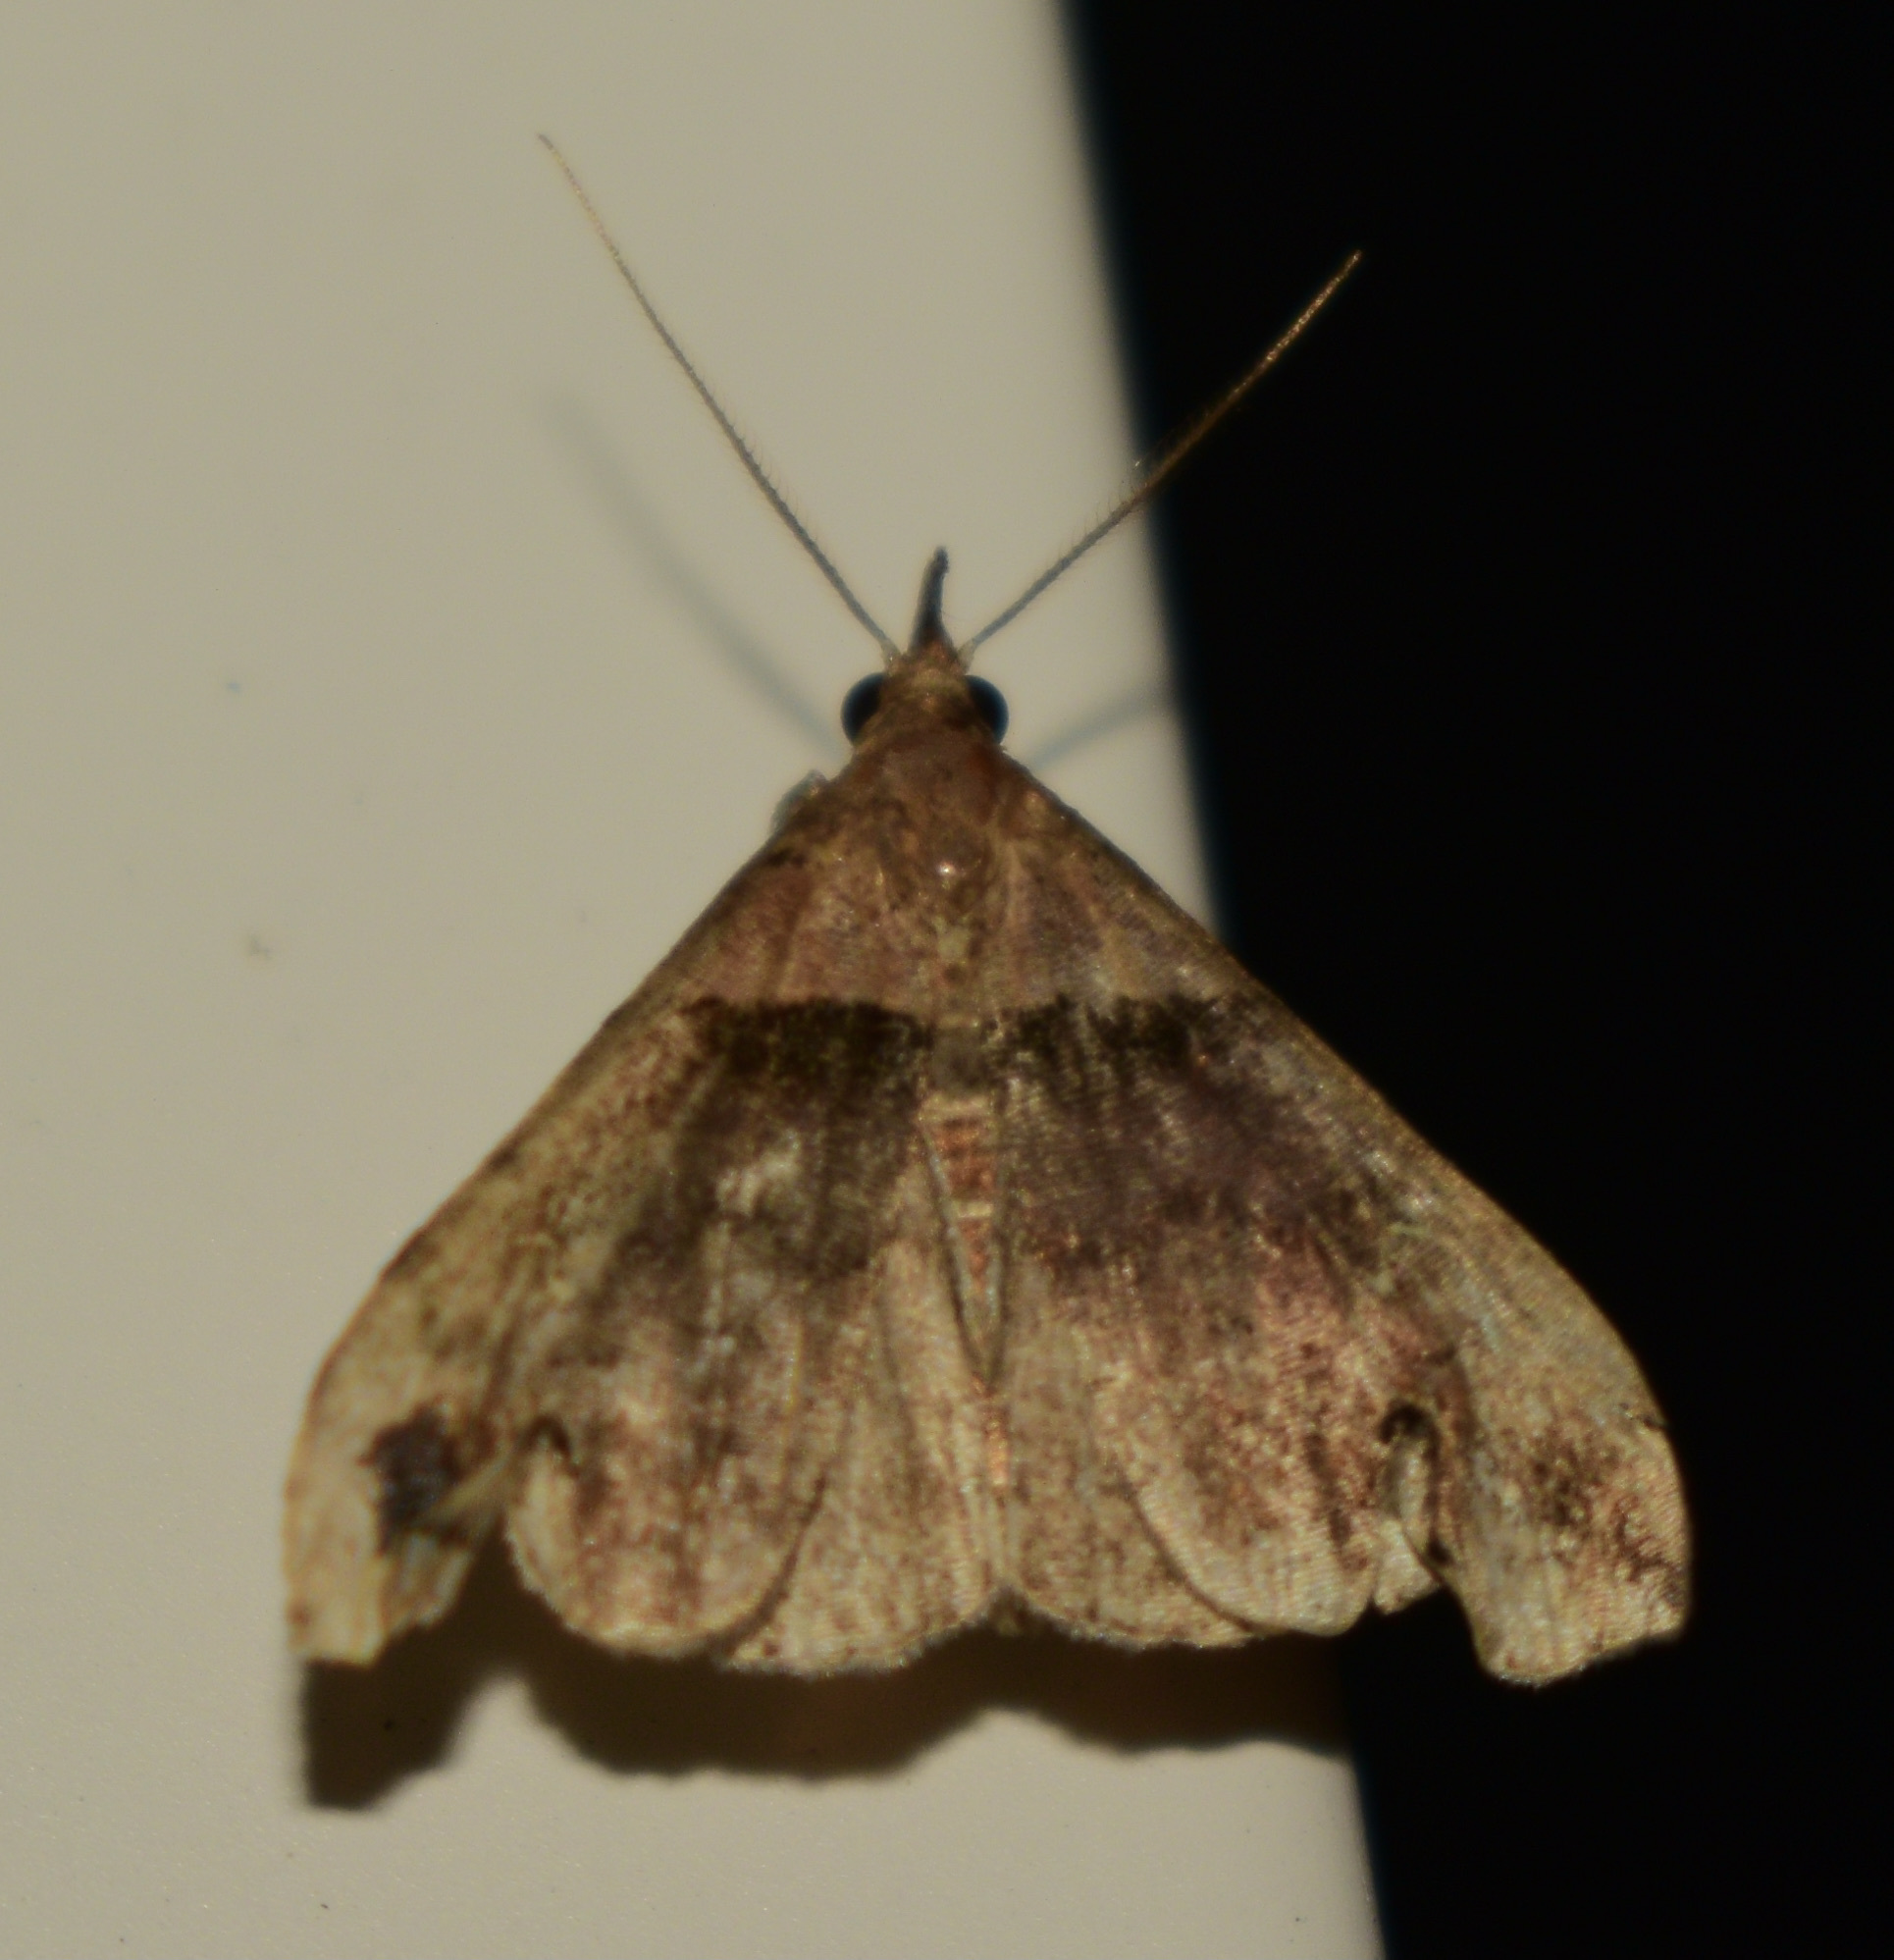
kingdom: Animalia
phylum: Arthropoda
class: Insecta
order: Lepidoptera
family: Erebidae
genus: Lascoria
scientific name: Lascoria ambigualis
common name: Ambiguous moth
